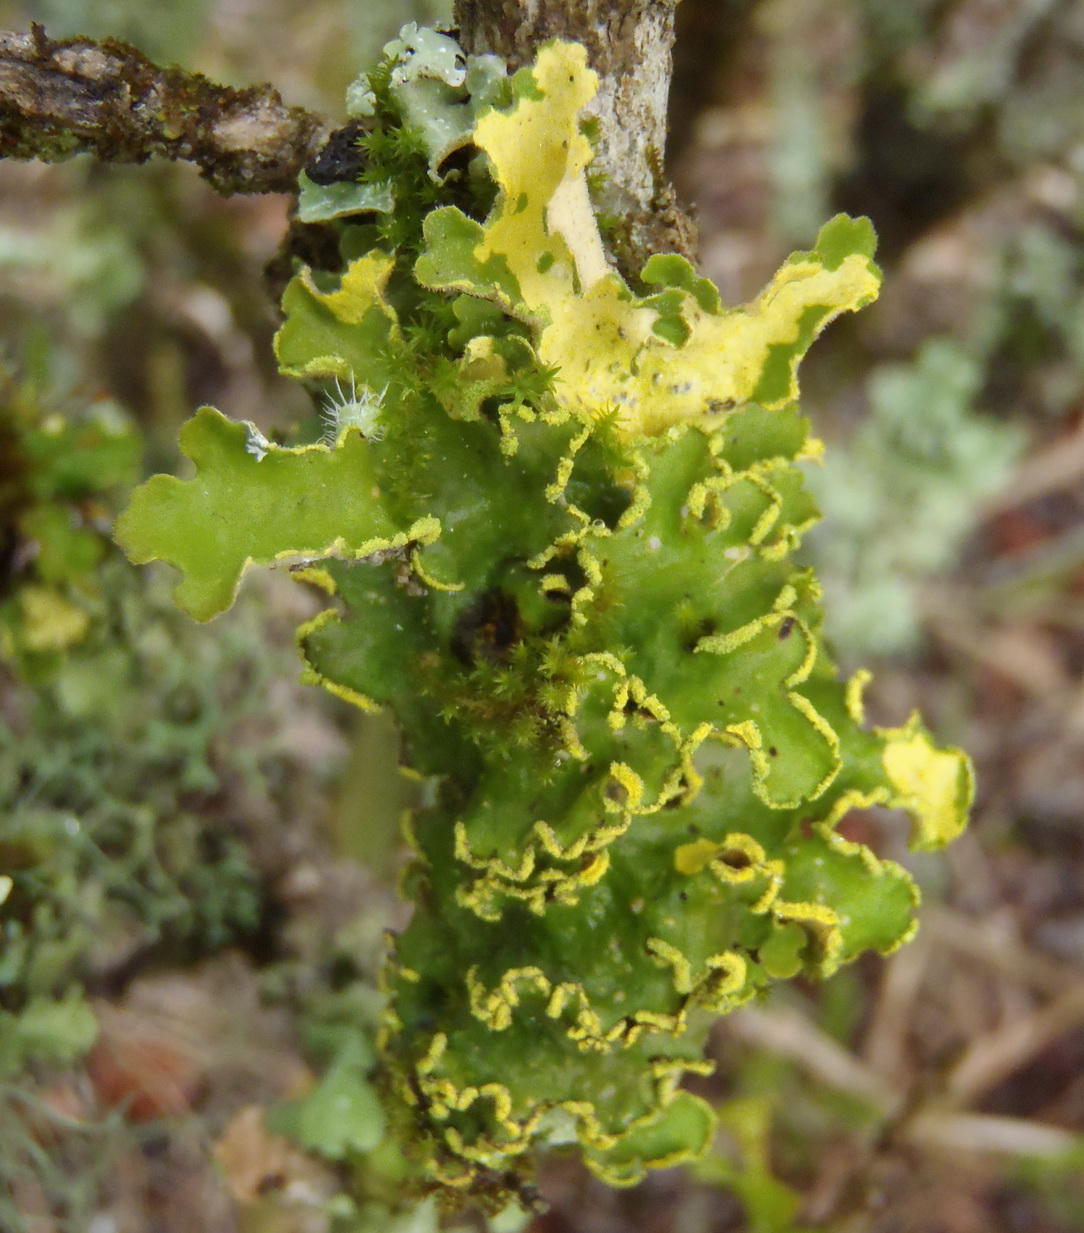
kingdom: Fungi
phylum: Ascomycota
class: Lecanoromycetes
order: Peltigerales
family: Lobariaceae
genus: Pseudocyphellaria
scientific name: Pseudocyphellaria aurata
